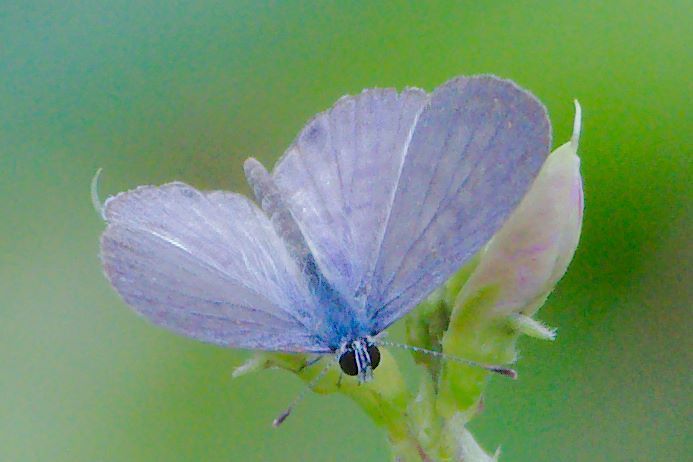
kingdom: Animalia
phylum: Arthropoda
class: Insecta
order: Lepidoptera
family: Lycaenidae
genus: Leptotes
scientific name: Leptotes cassius
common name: Cassius blue
